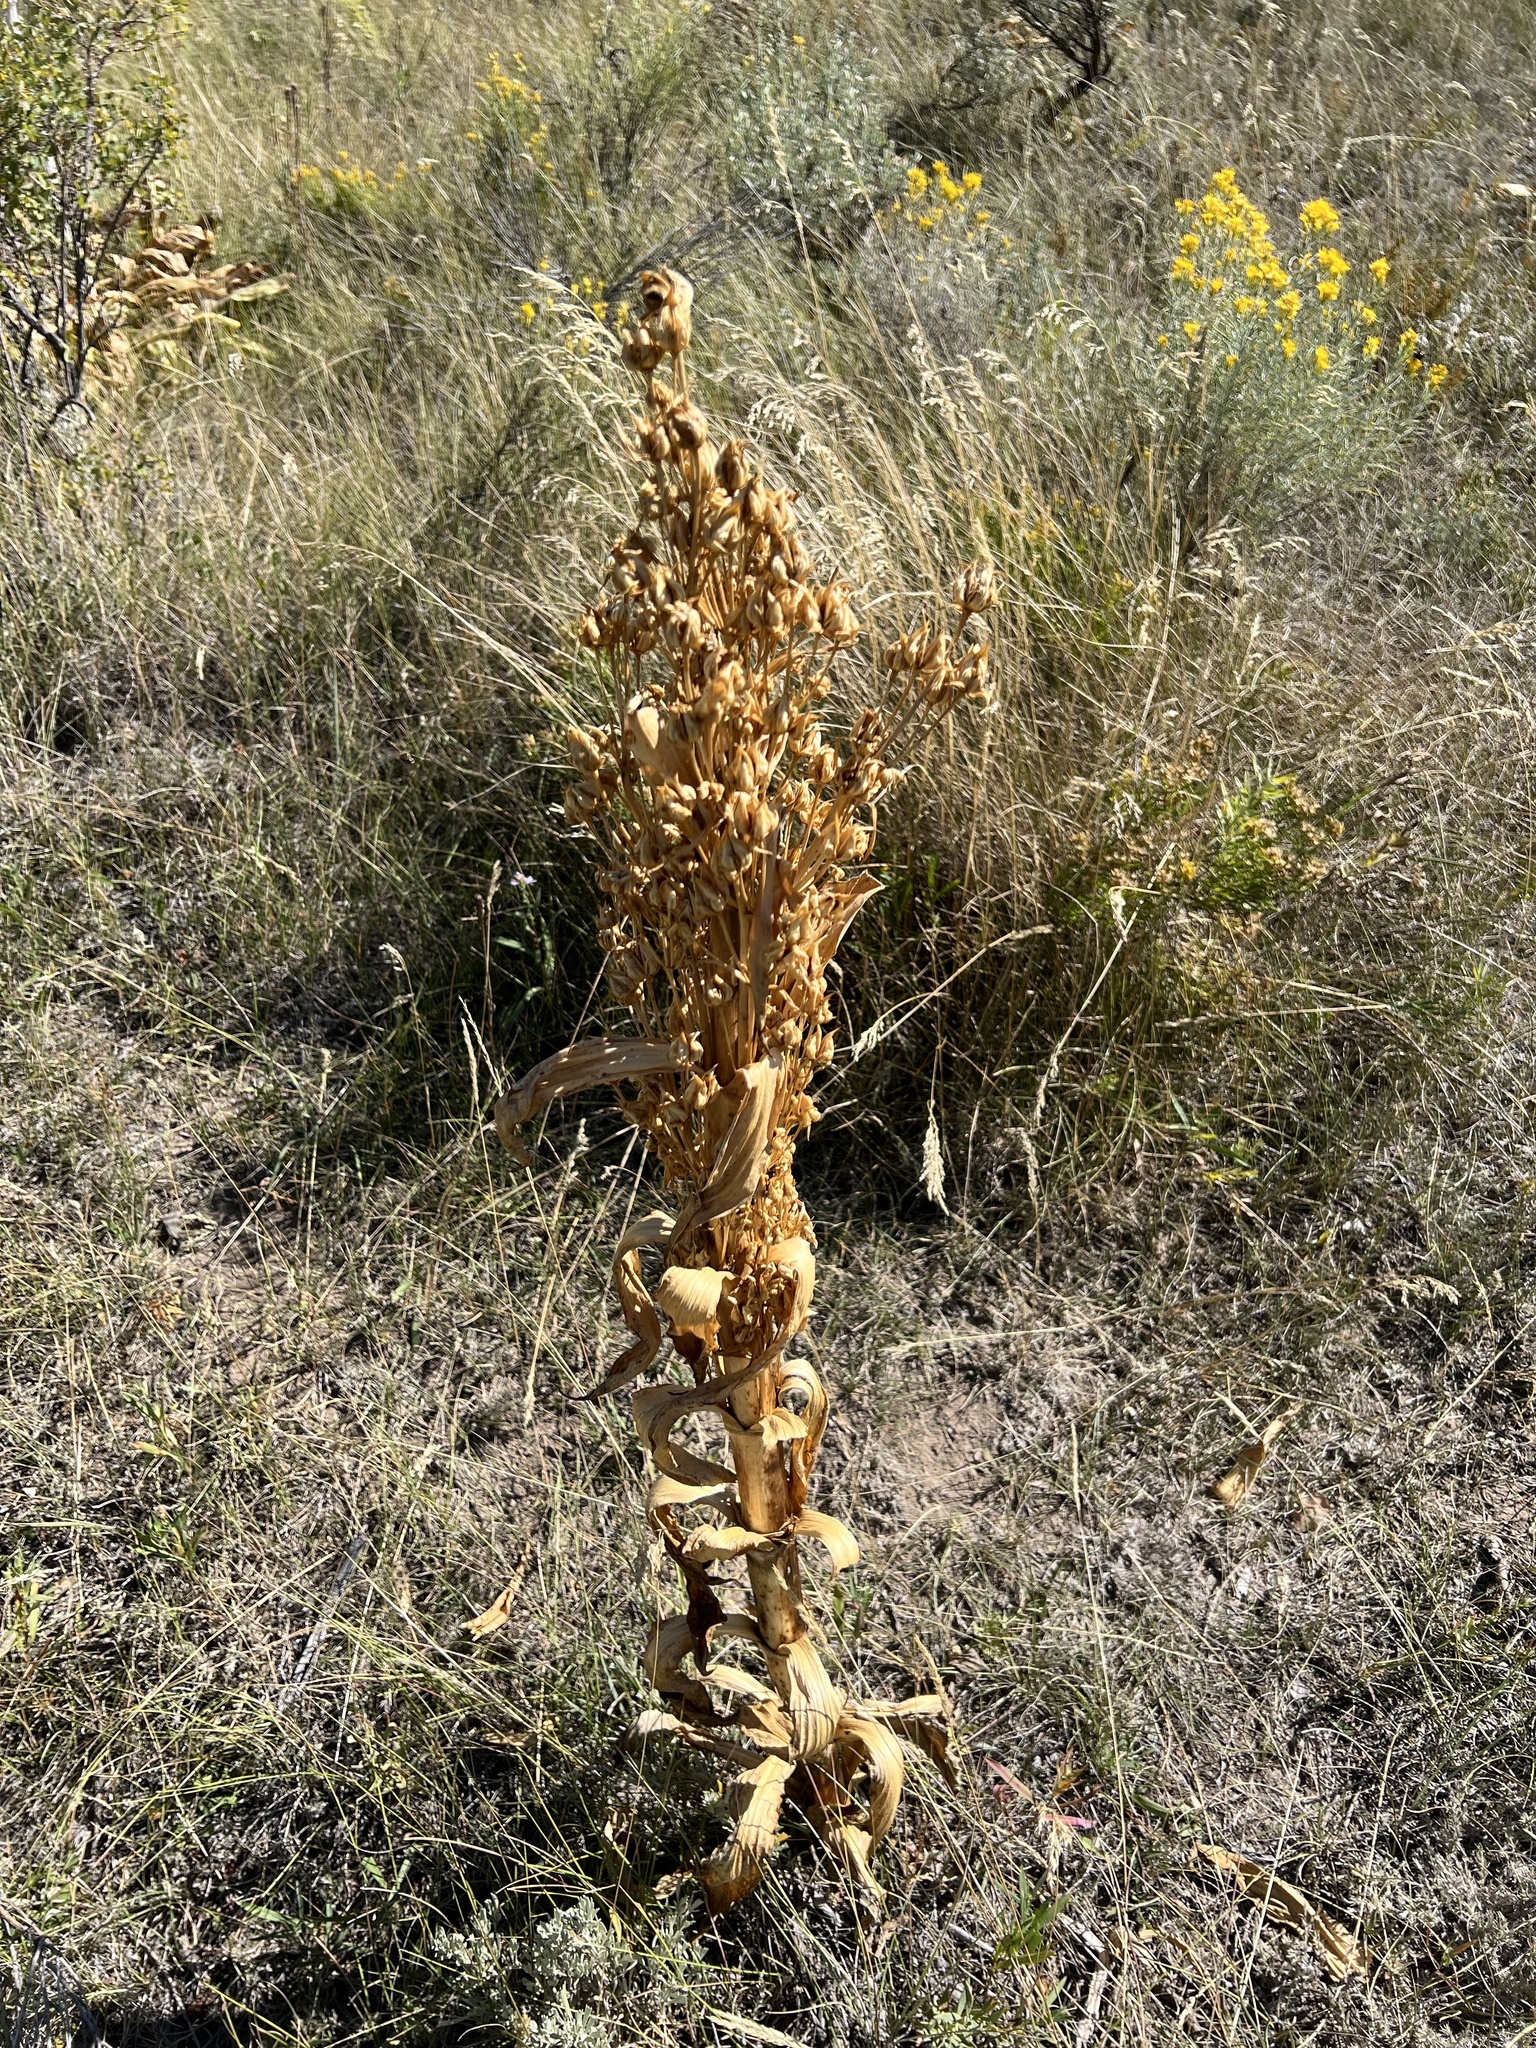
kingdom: Plantae
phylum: Tracheophyta
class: Magnoliopsida
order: Gentianales
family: Gentianaceae
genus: Frasera
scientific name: Frasera speciosa
